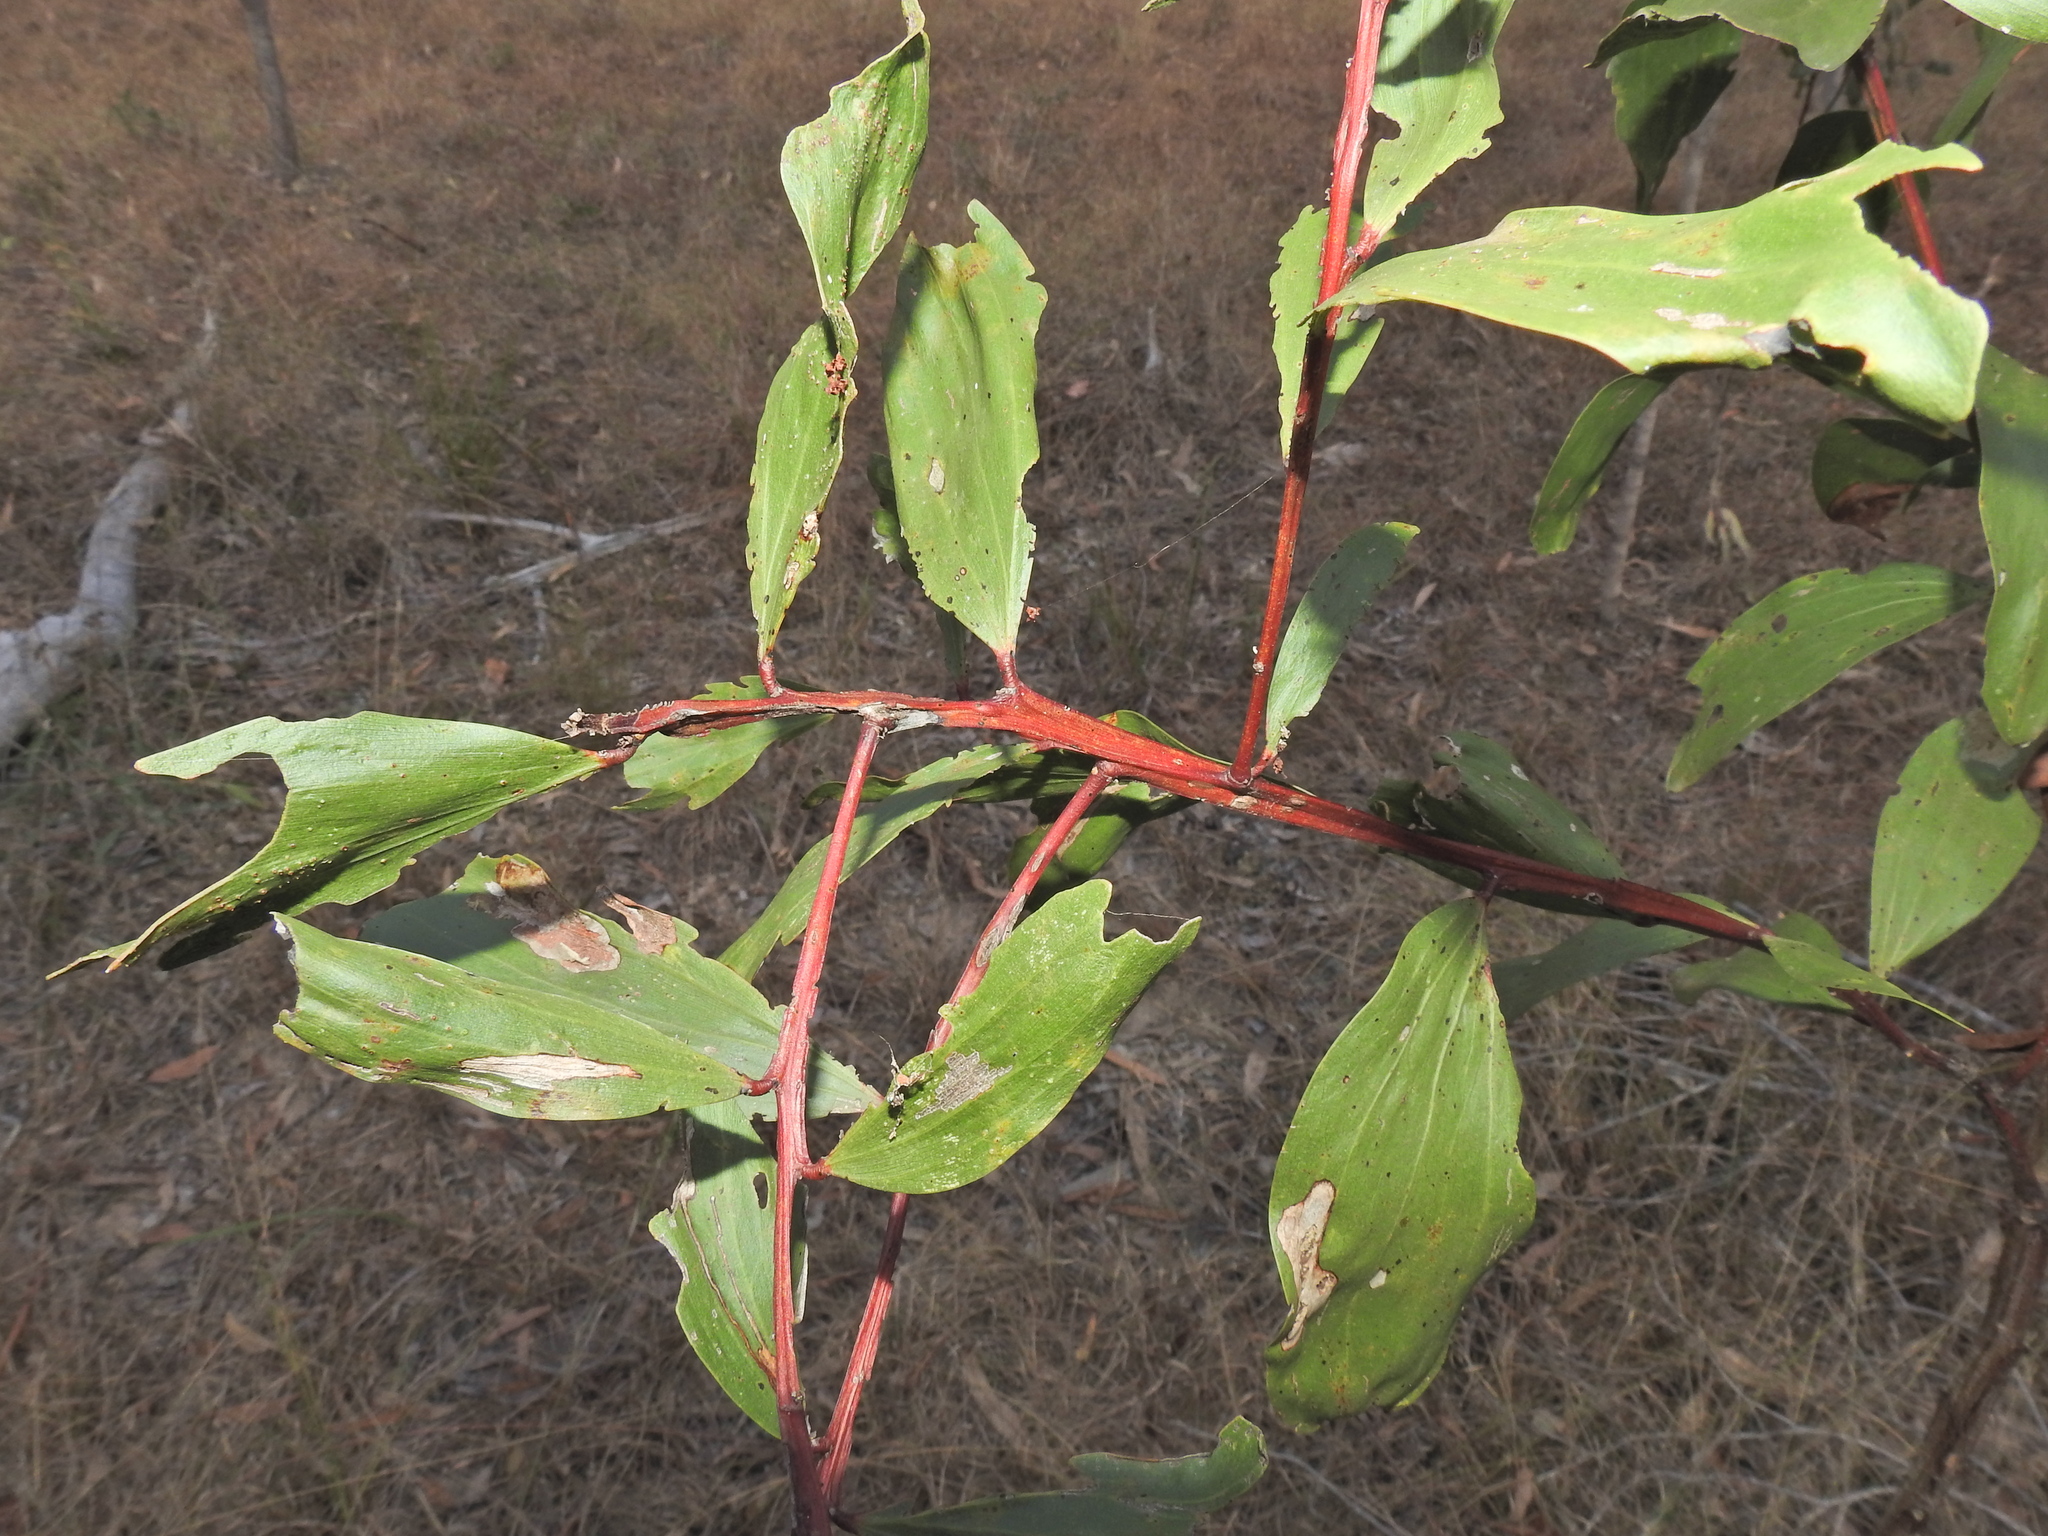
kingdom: Plantae
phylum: Tracheophyta
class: Magnoliopsida
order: Fabales
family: Fabaceae
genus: Acacia
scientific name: Acacia leiocalyx
